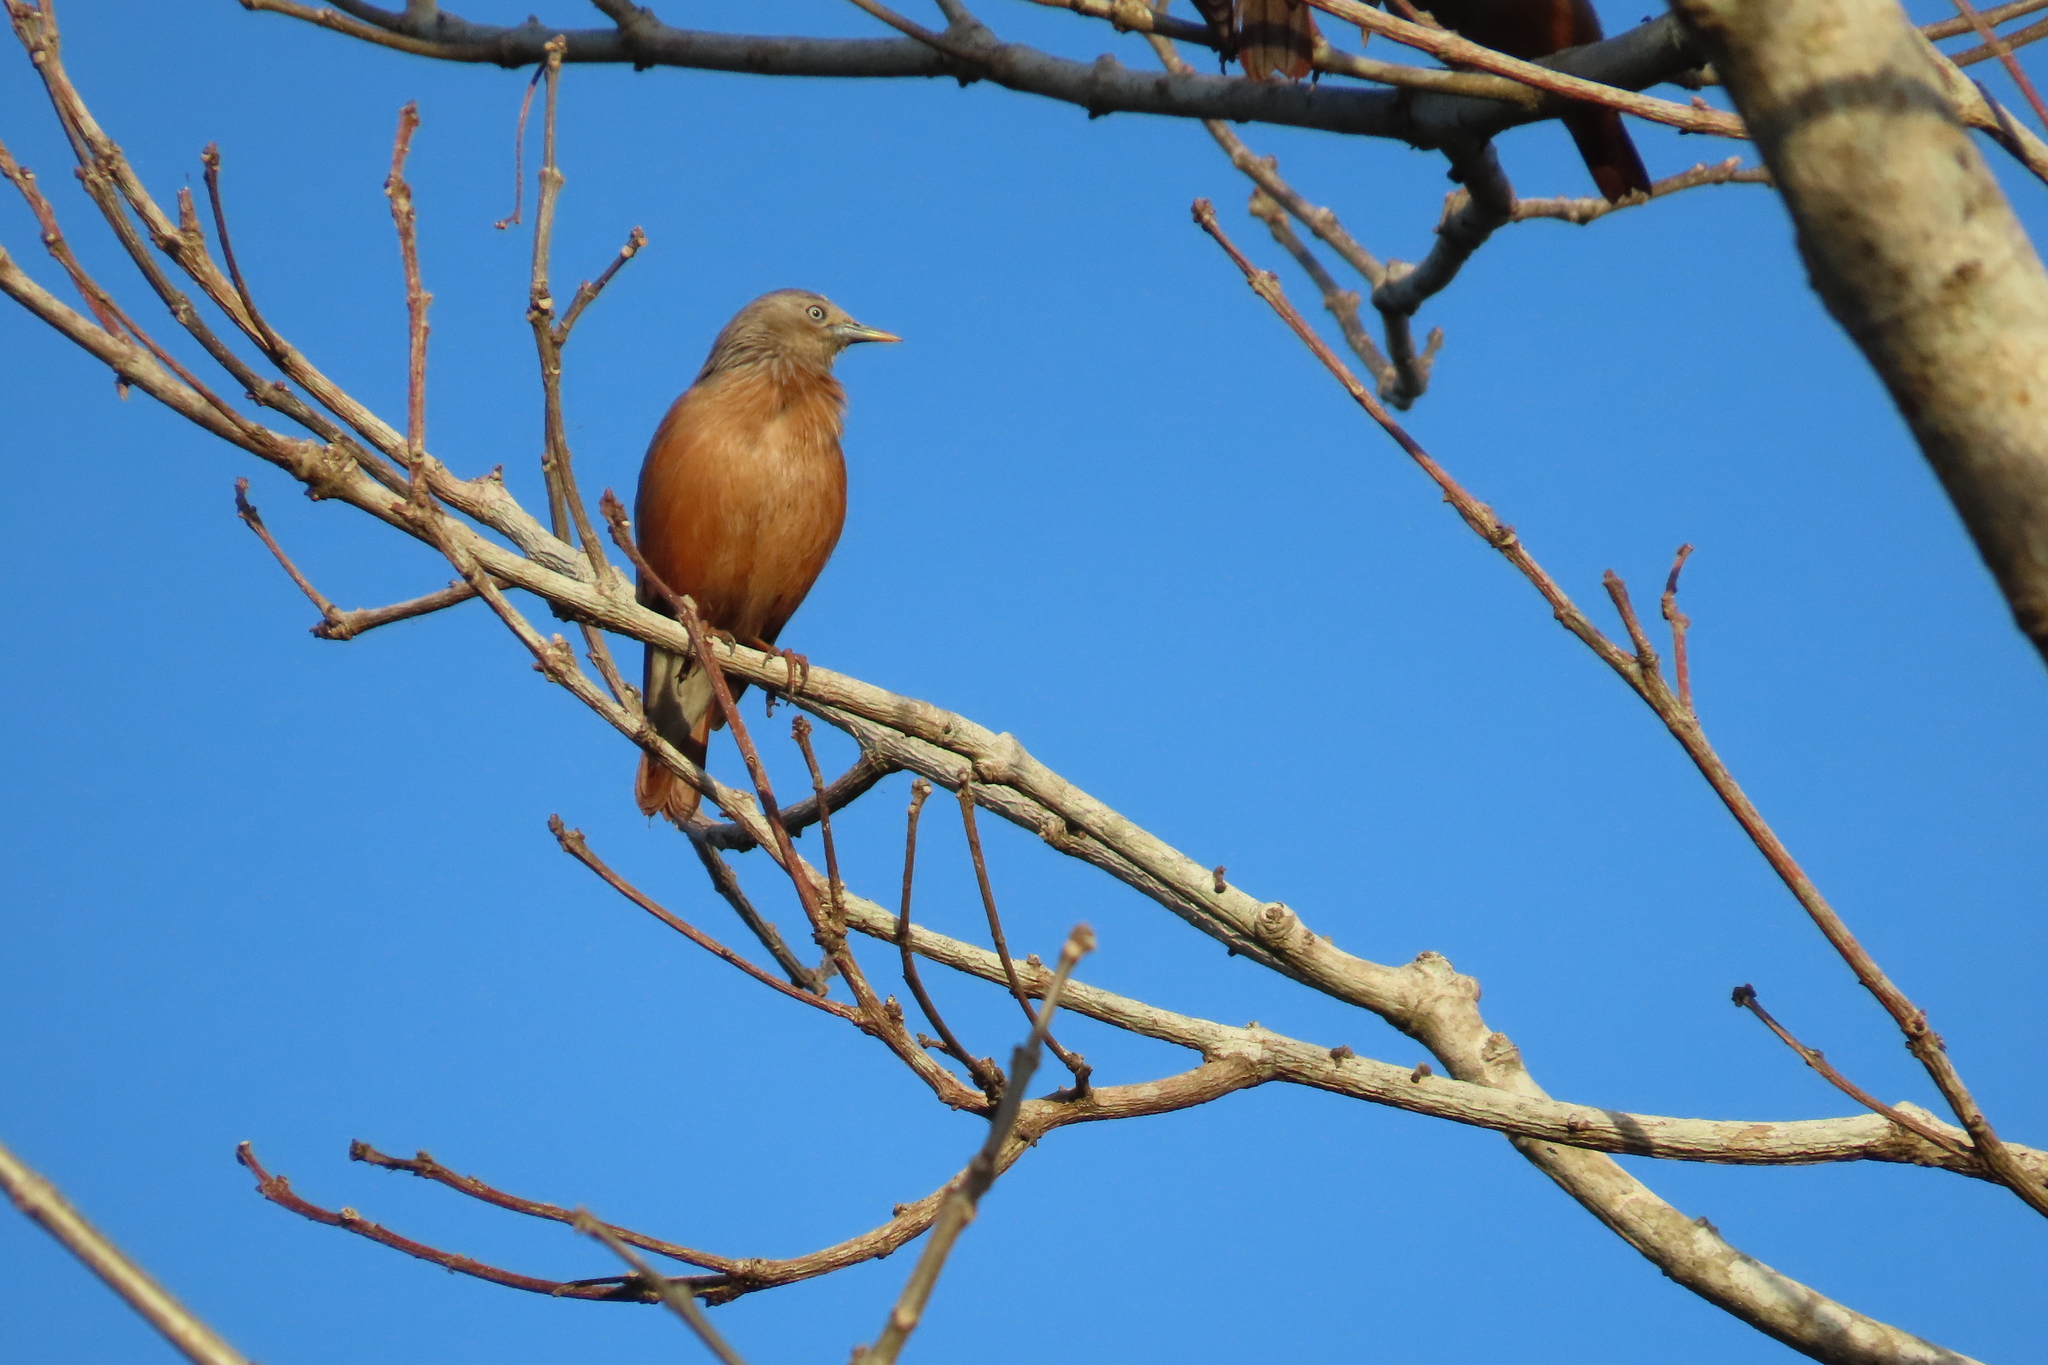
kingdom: Animalia
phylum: Chordata
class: Aves
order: Passeriformes
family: Sturnidae
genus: Sturnia
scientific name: Sturnia malabarica
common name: Chestnut-tailed starling
